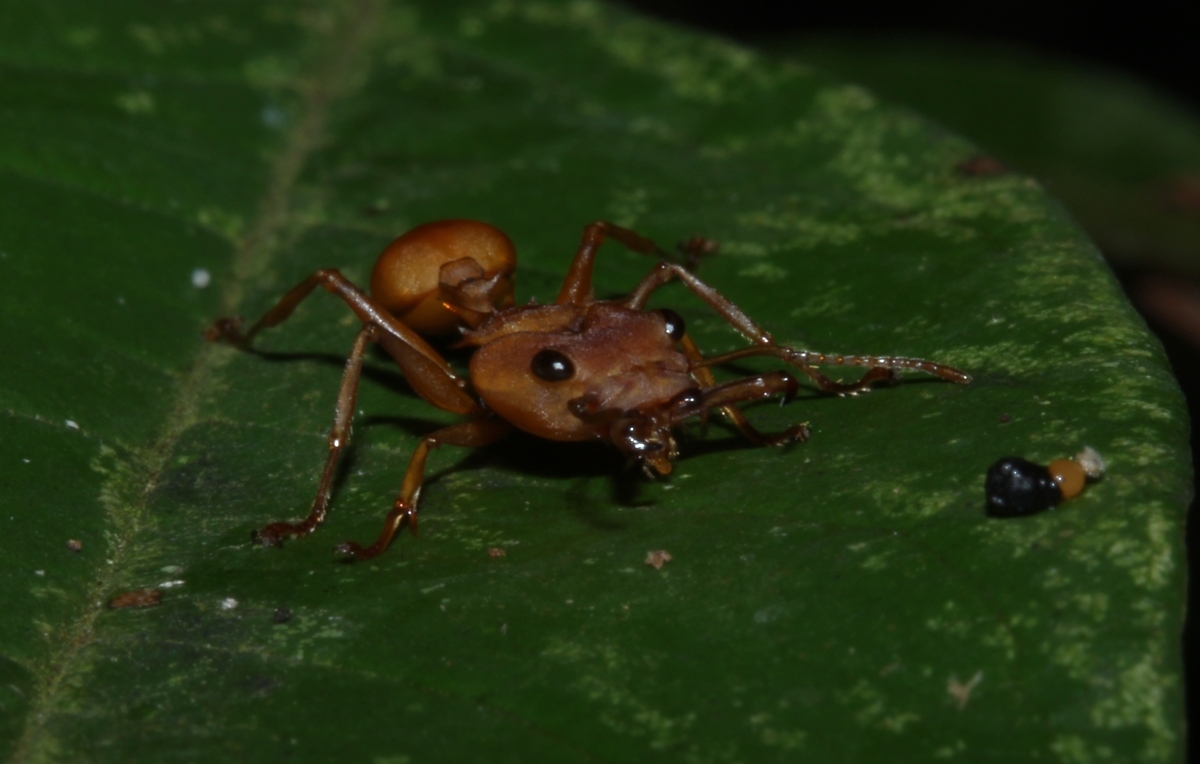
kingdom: Animalia
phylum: Arthropoda
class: Insecta
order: Hymenoptera
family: Formicidae
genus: Daceton
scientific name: Daceton armigerum
